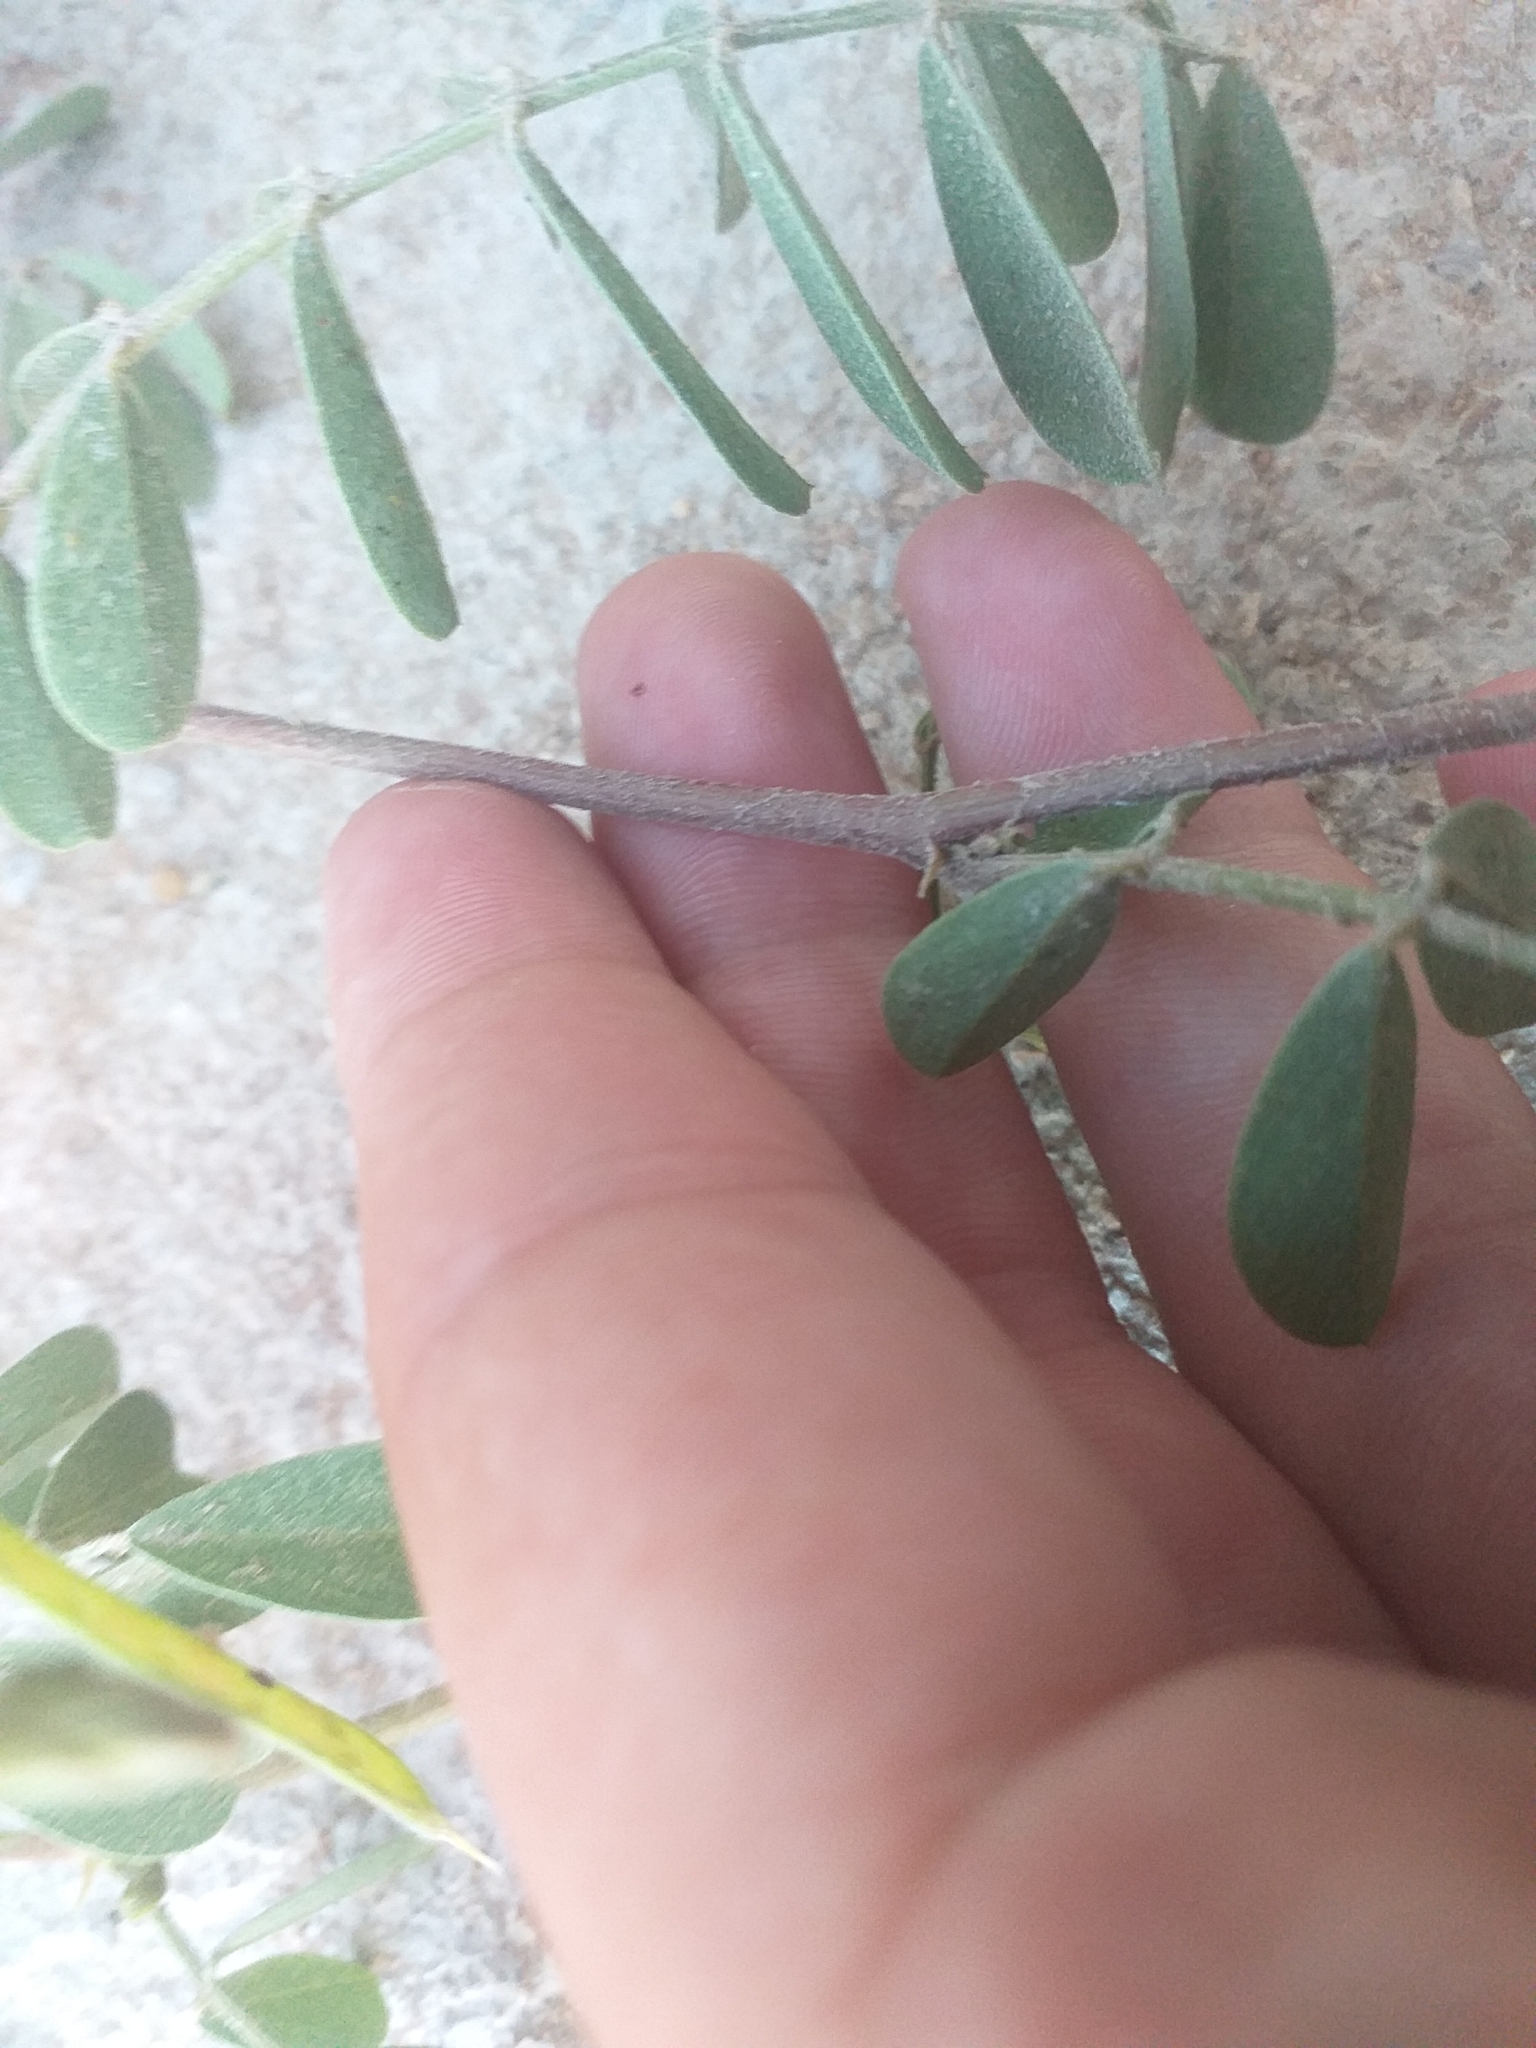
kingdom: Plantae
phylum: Tracheophyta
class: Magnoliopsida
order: Fabales
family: Fabaceae
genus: Tephrosia
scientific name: Tephrosia cinerea
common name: Ashen hoarypea
